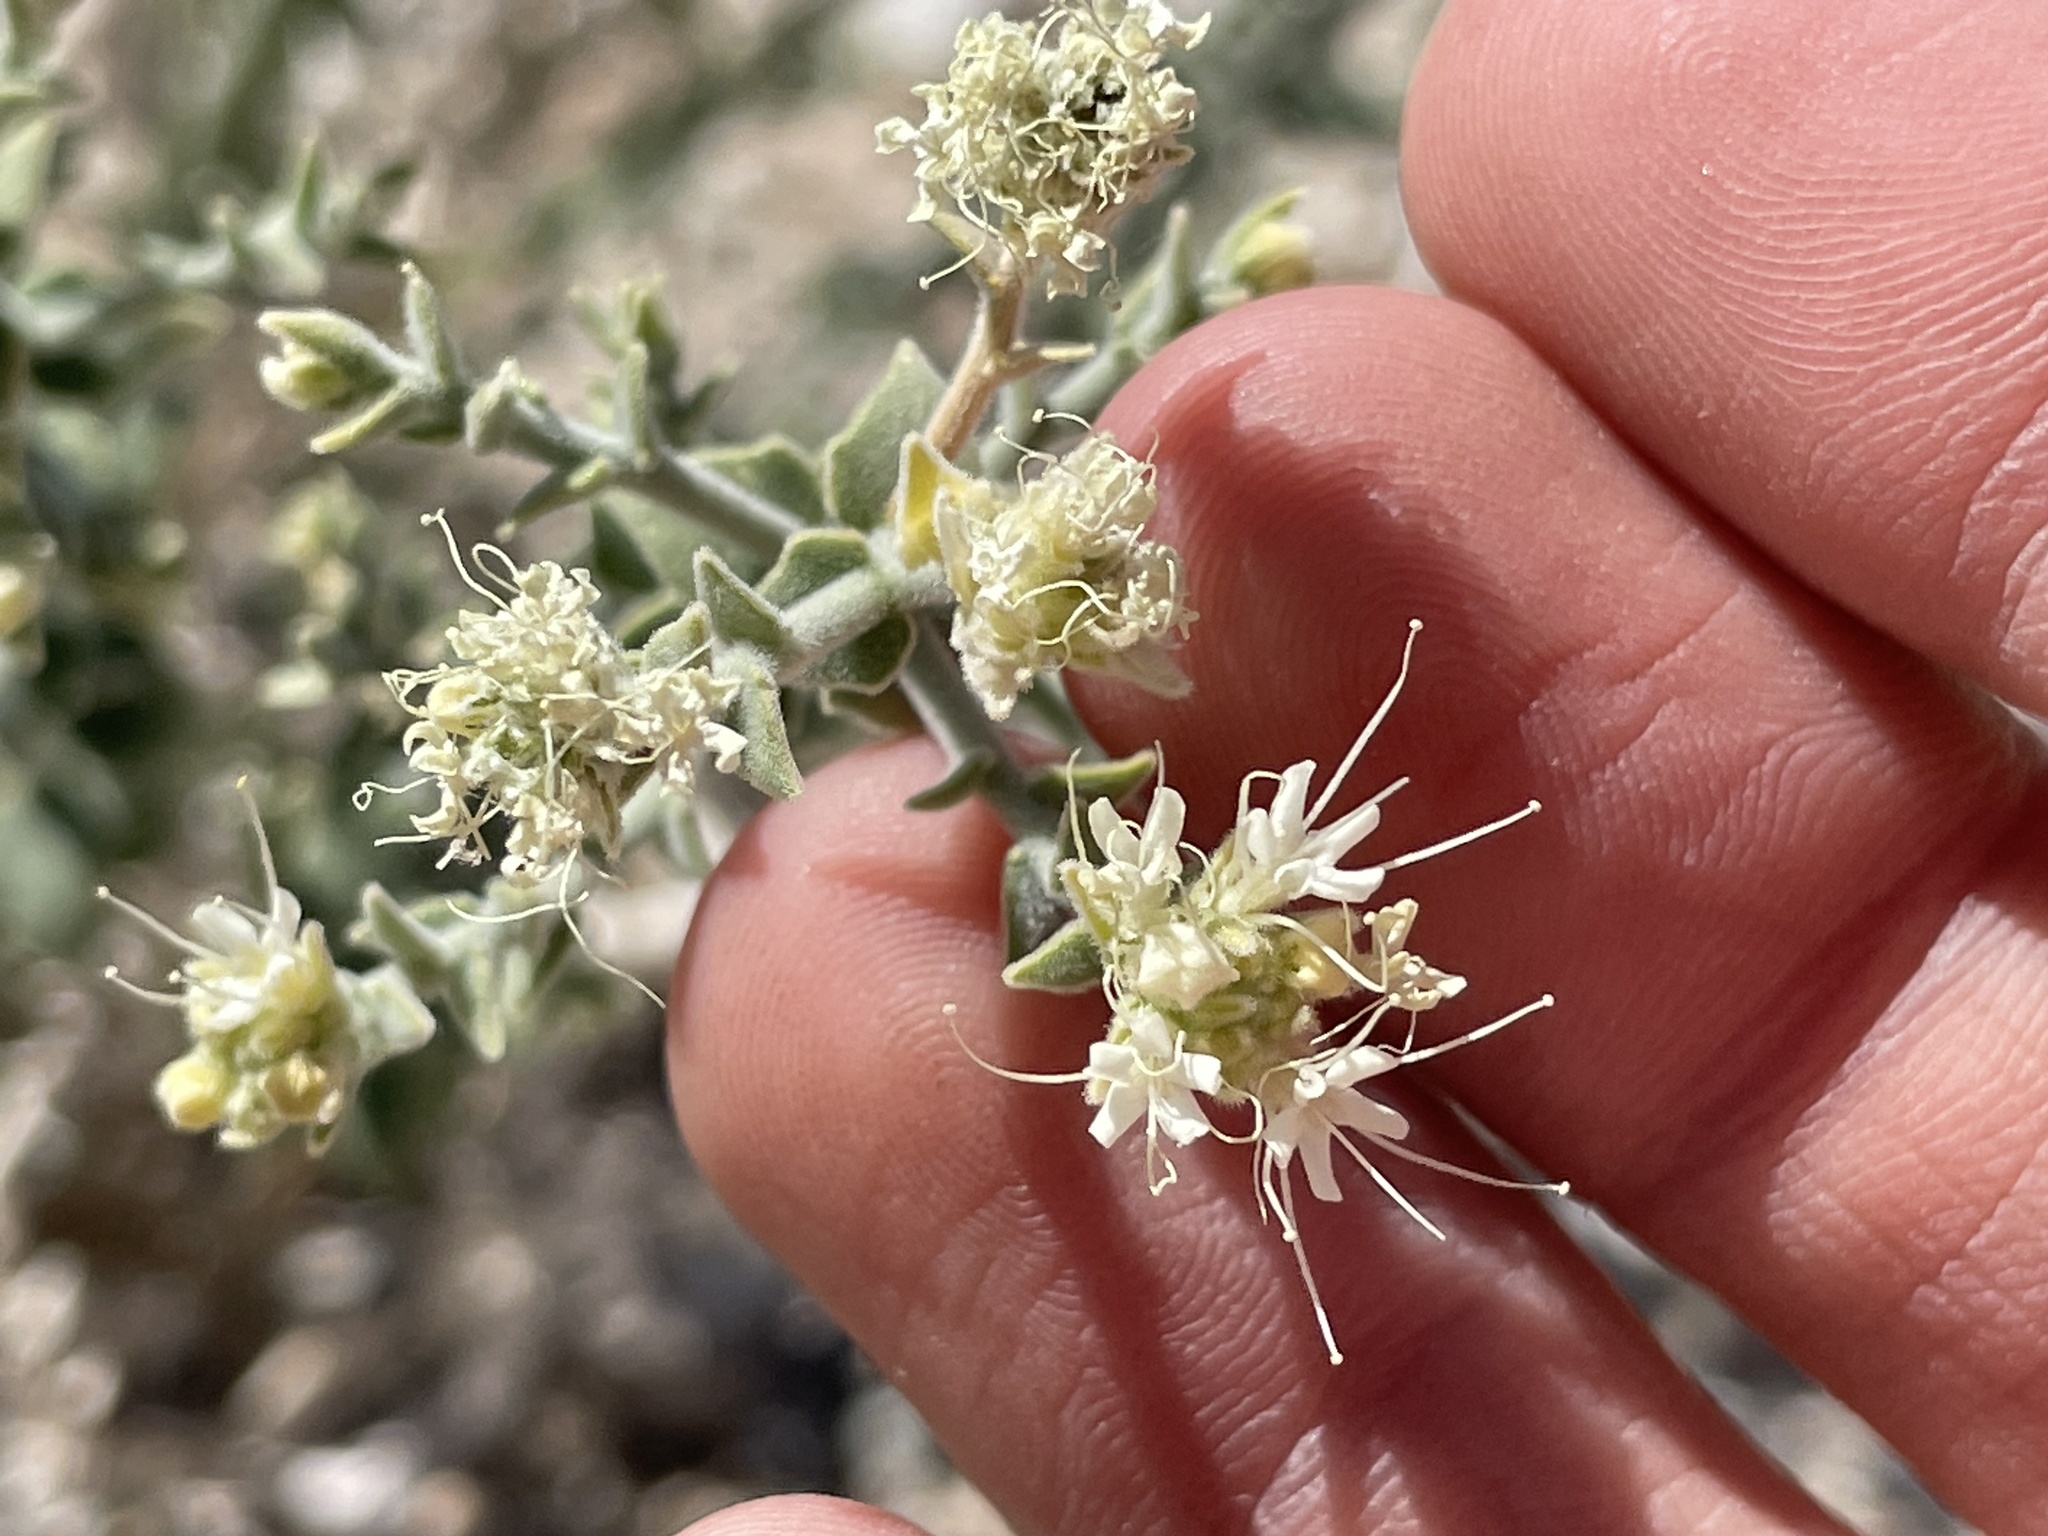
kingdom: Plantae
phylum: Tracheophyta
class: Magnoliopsida
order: Cornales
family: Loasaceae
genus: Petalonyx
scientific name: Petalonyx thurberi
